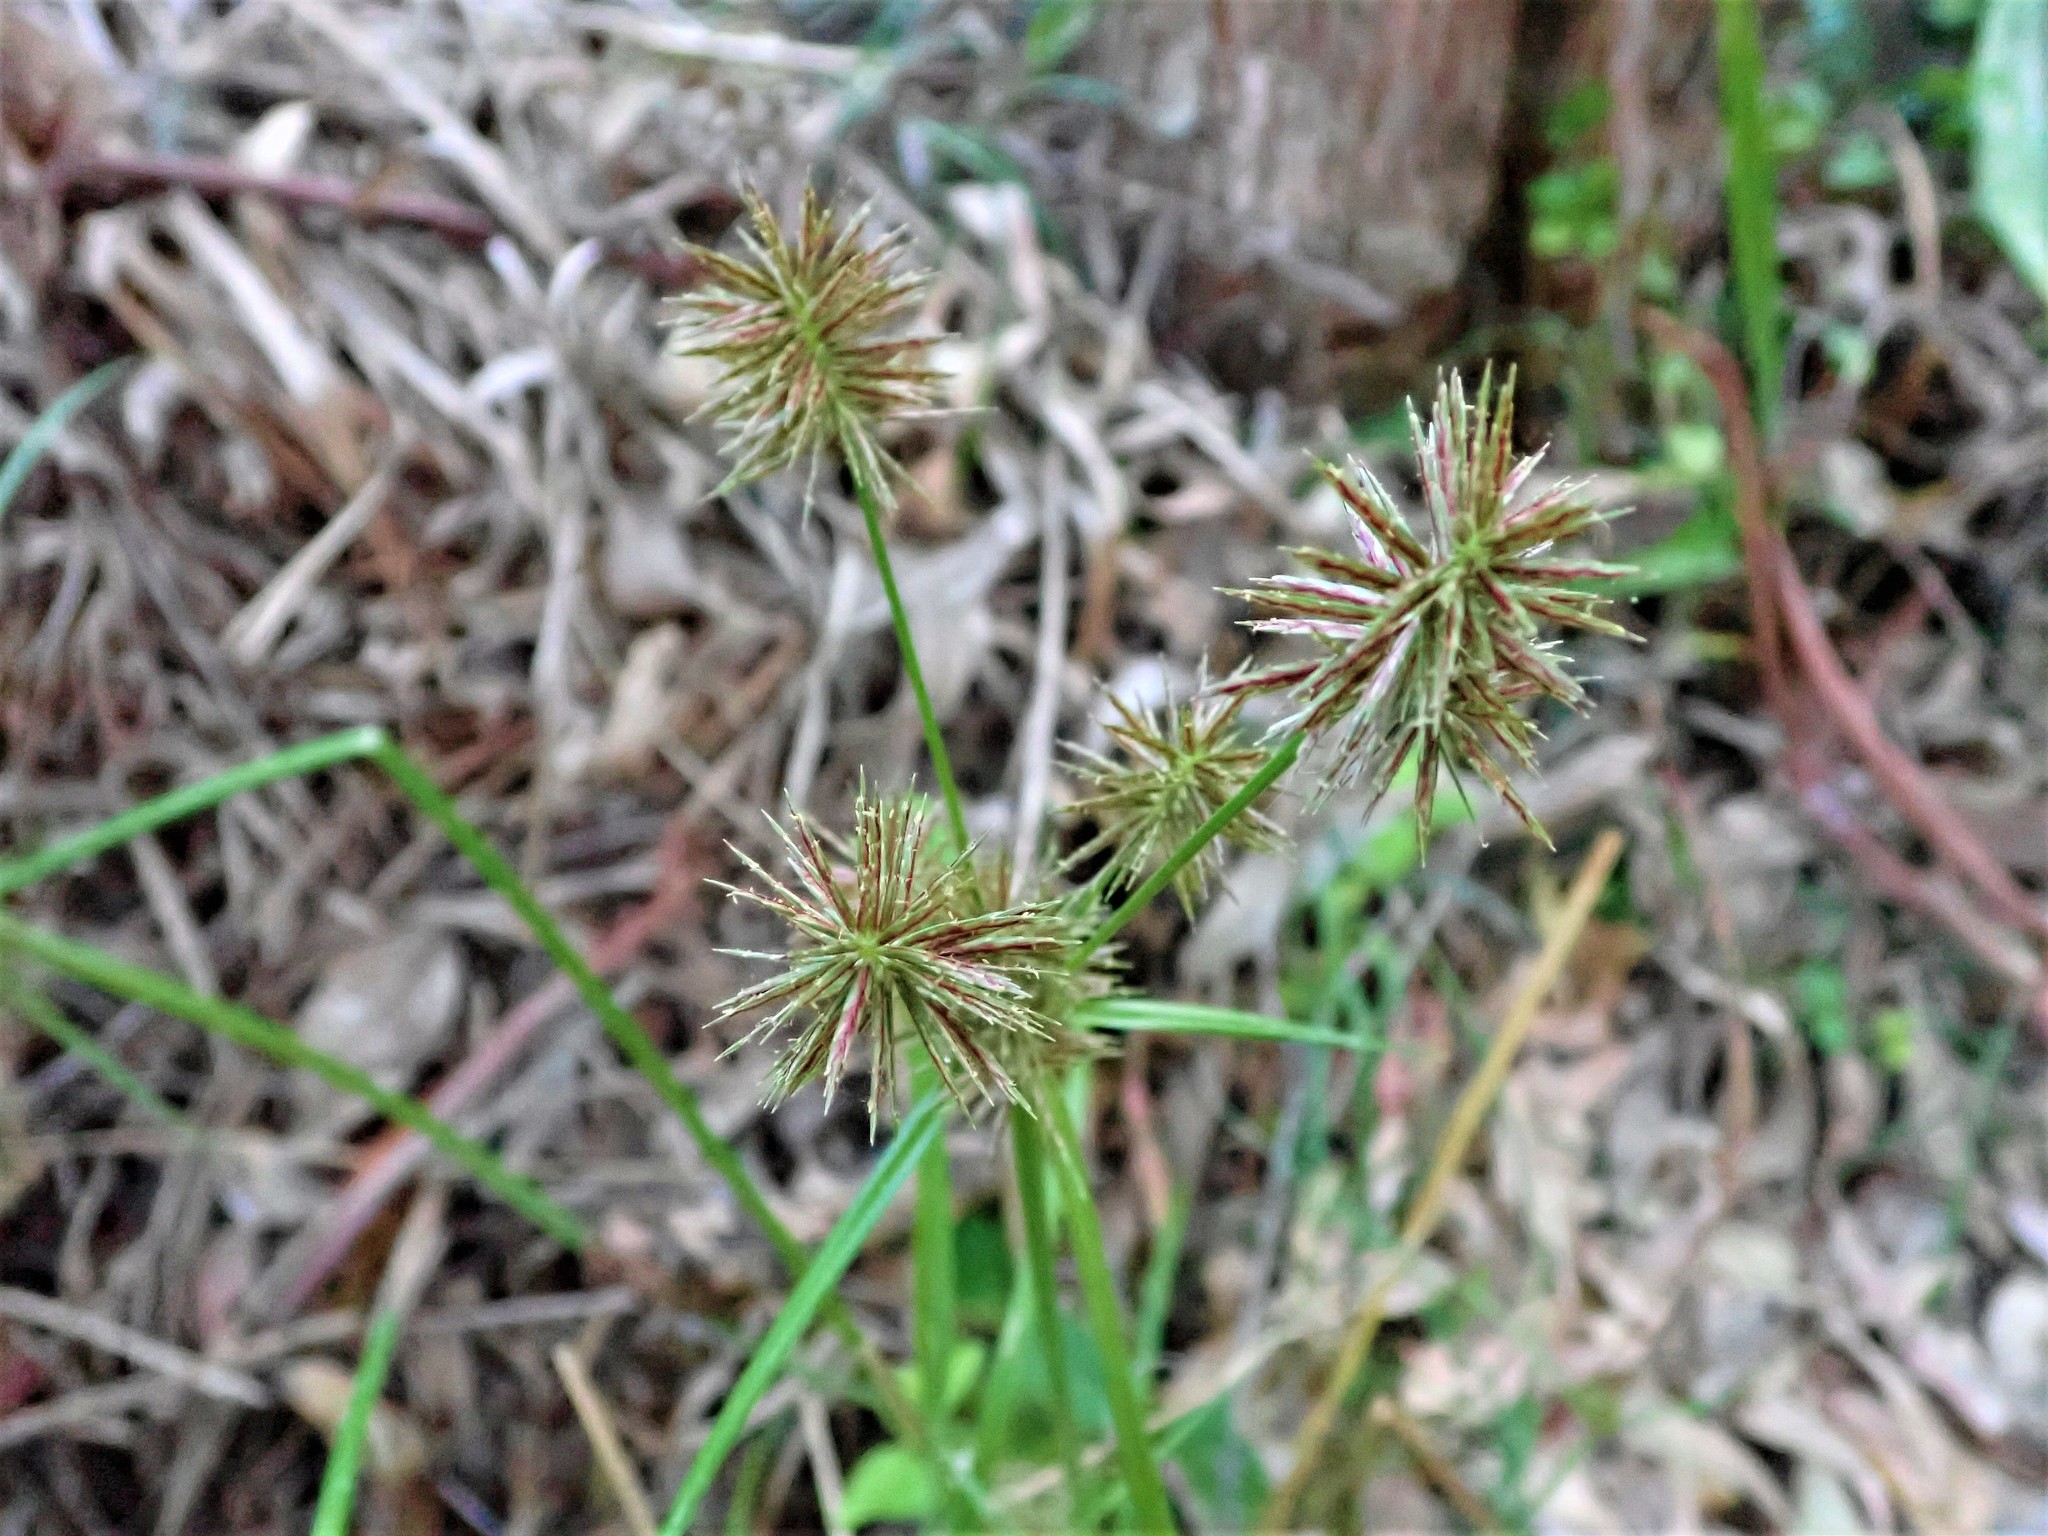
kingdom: Plantae
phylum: Tracheophyta
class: Liliopsida
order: Poales
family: Cyperaceae
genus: Cyperus
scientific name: Cyperus congestus
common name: Dense flat sedge
